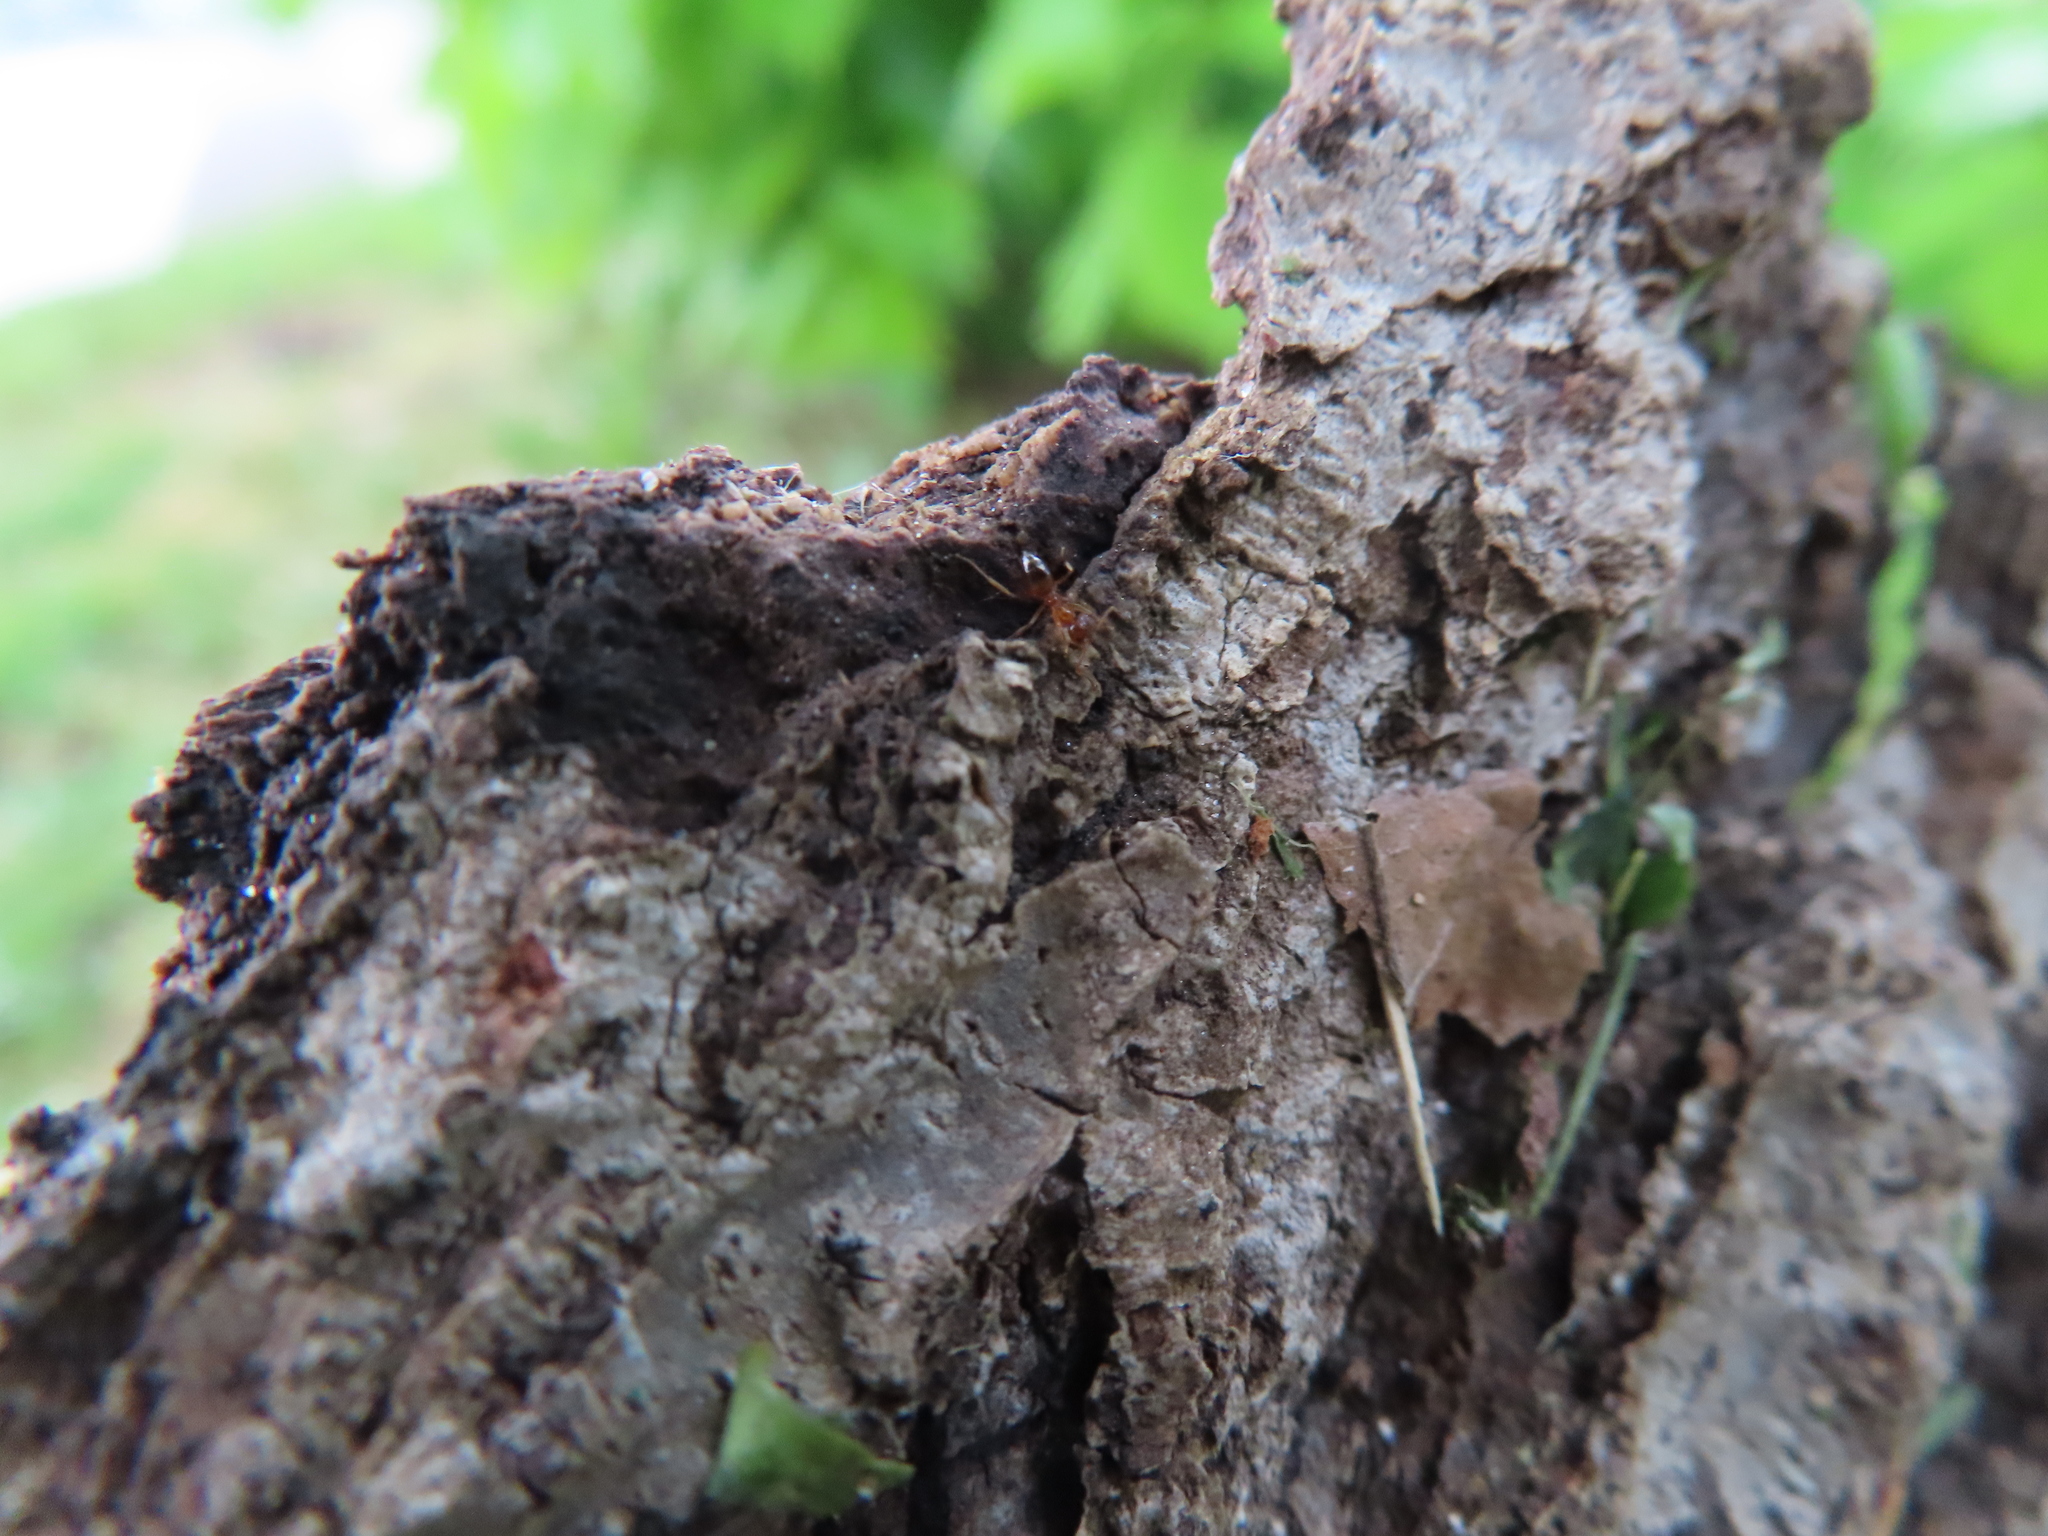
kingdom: Animalia
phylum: Arthropoda
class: Insecta
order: Hymenoptera
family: Formicidae
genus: Paratrechina
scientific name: Paratrechina flavipes
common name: Eastern asian formicine ant
